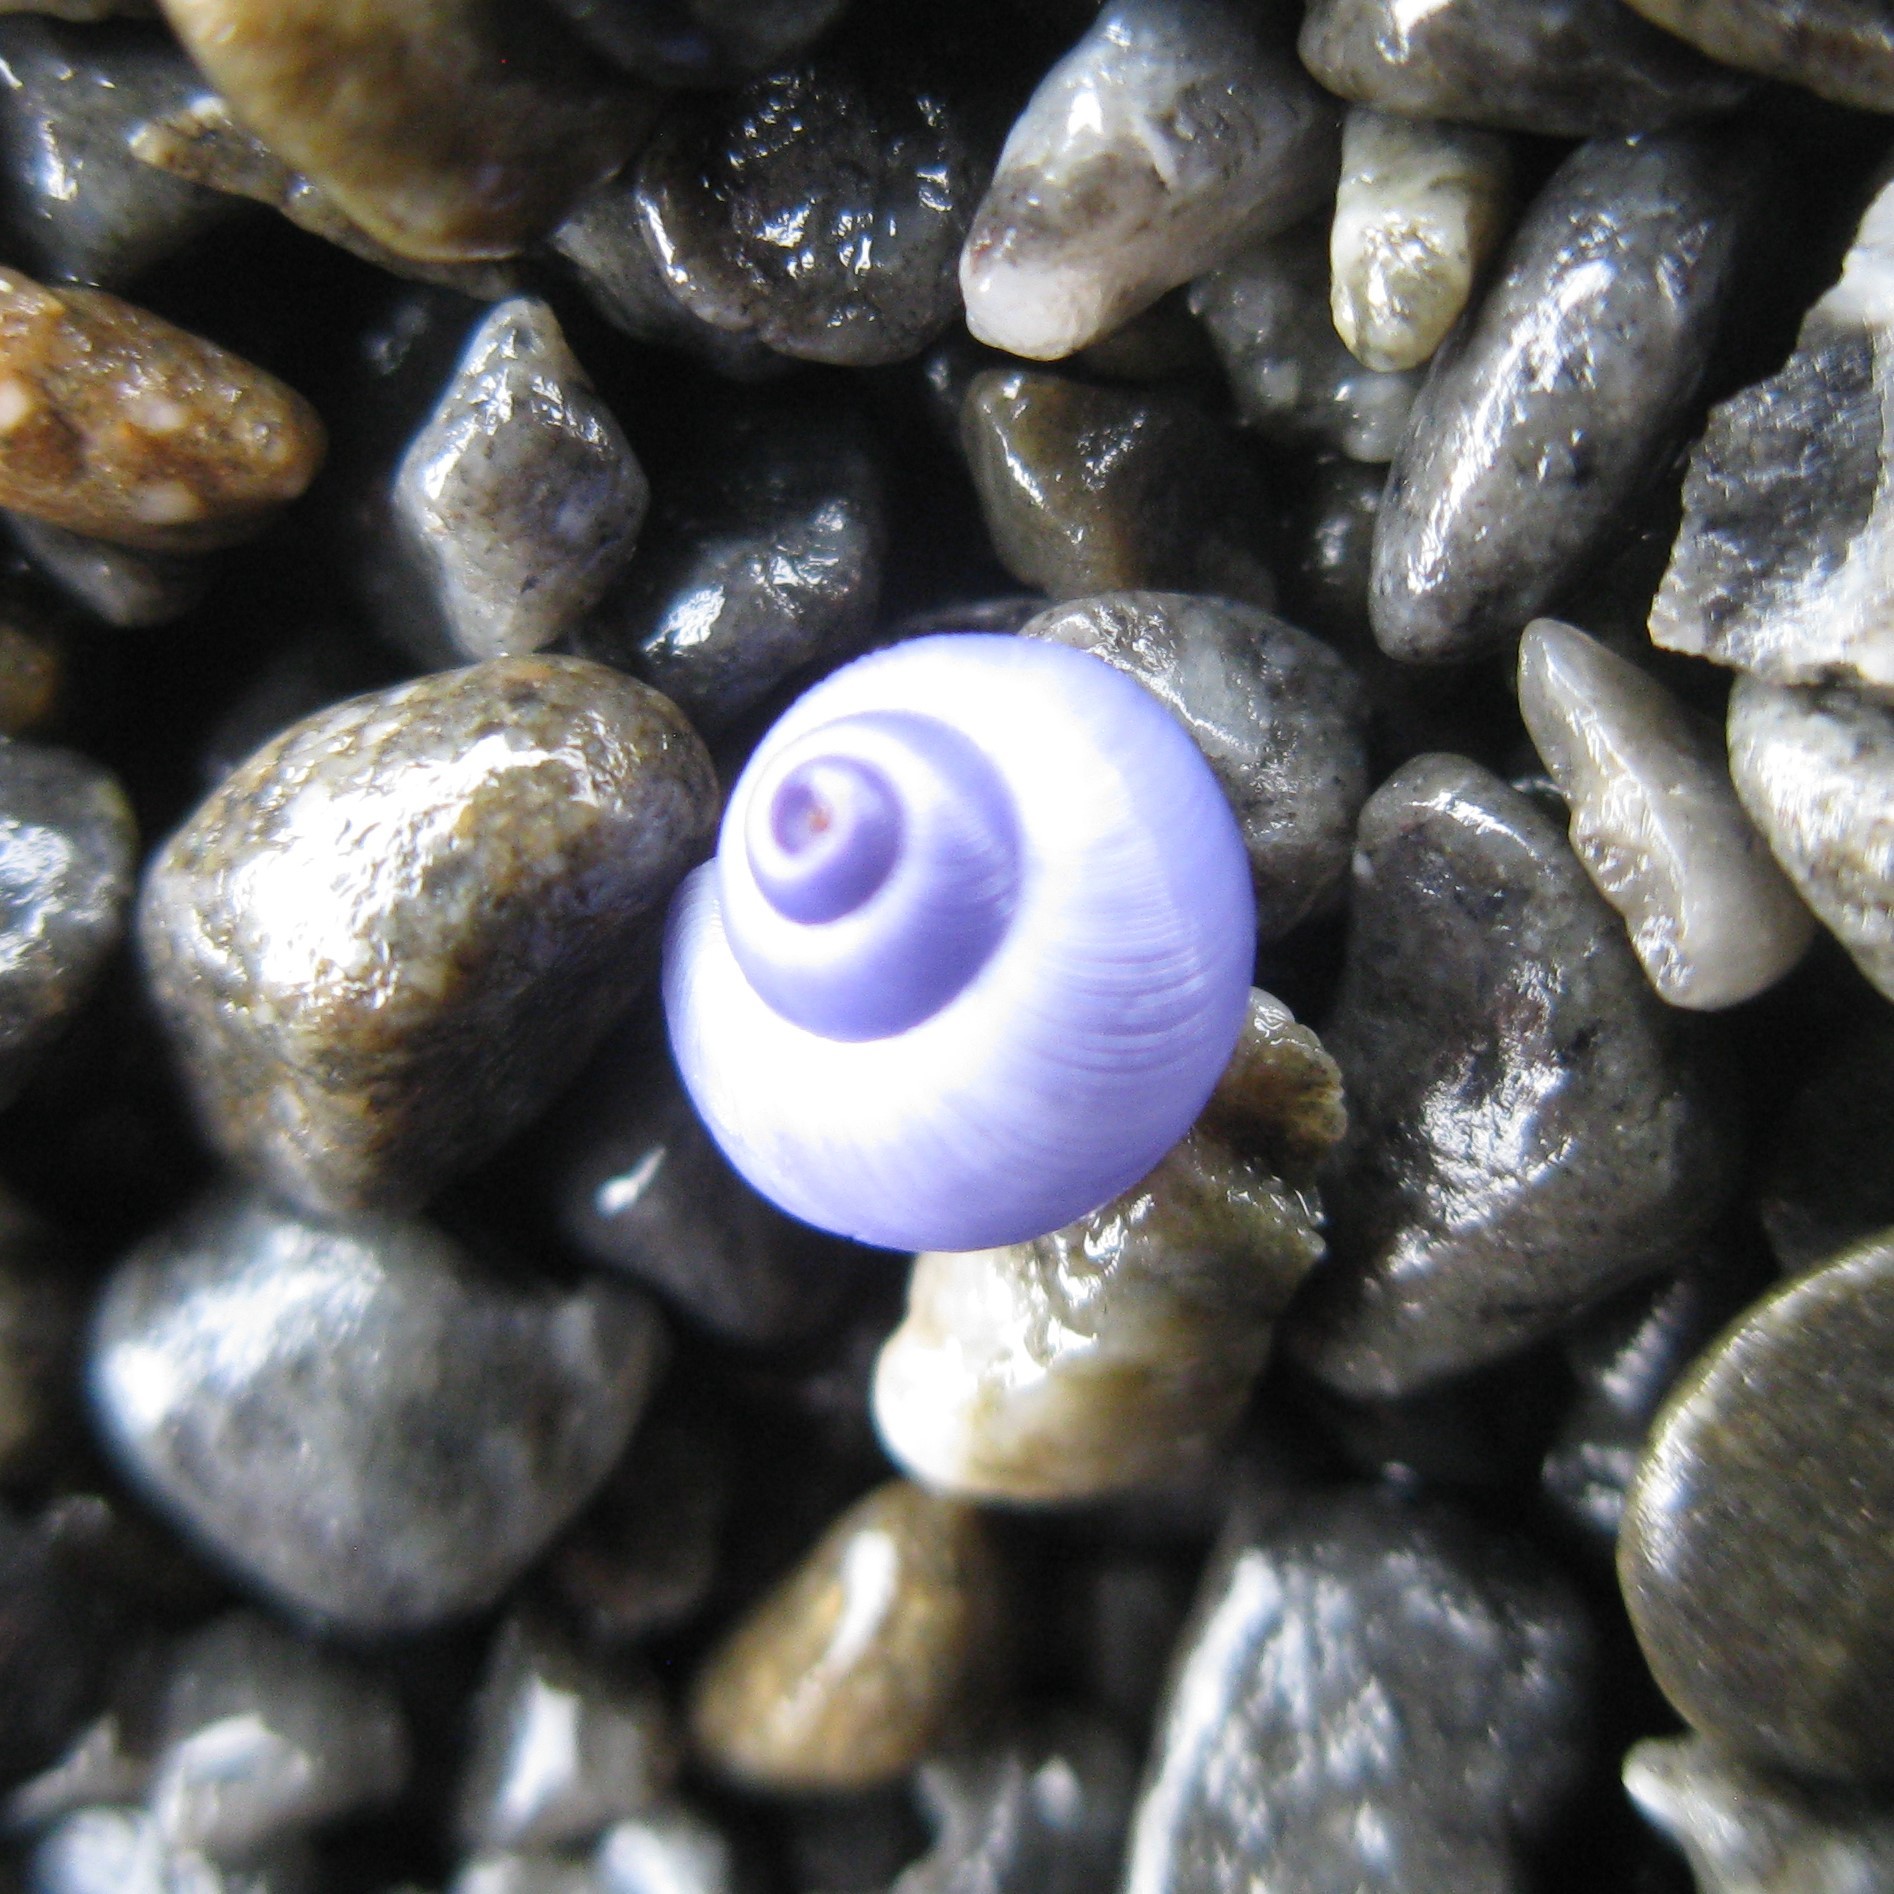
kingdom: Animalia
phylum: Mollusca
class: Gastropoda
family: Epitoniidae
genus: Janthina
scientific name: Janthina exigua
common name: Dwarf janthina
